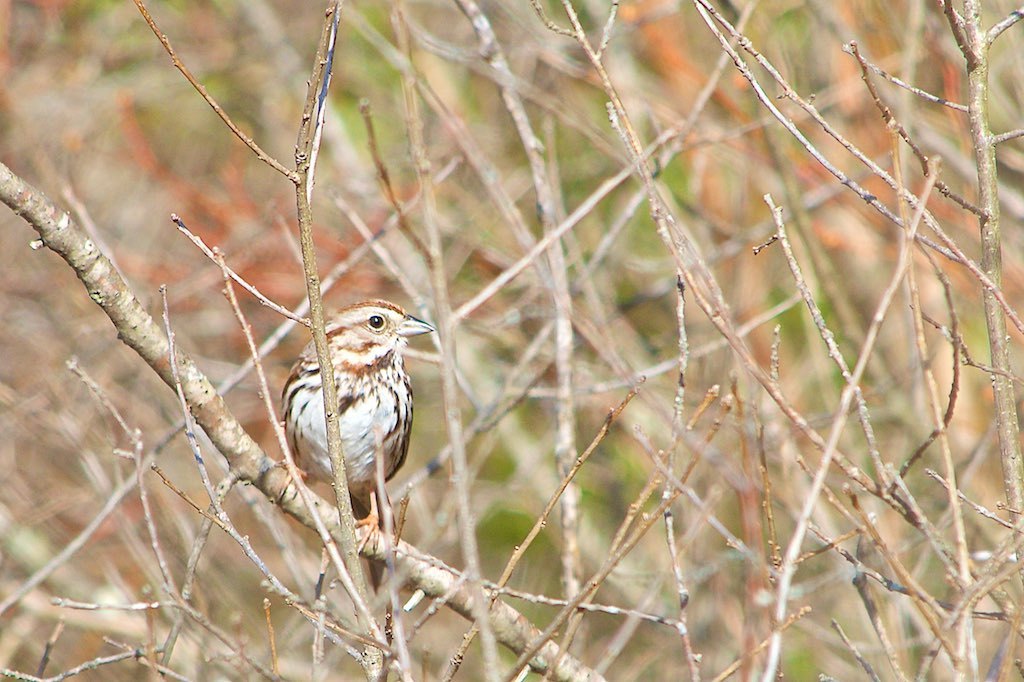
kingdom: Animalia
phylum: Chordata
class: Aves
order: Passeriformes
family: Passerellidae
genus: Melospiza
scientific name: Melospiza melodia
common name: Song sparrow
